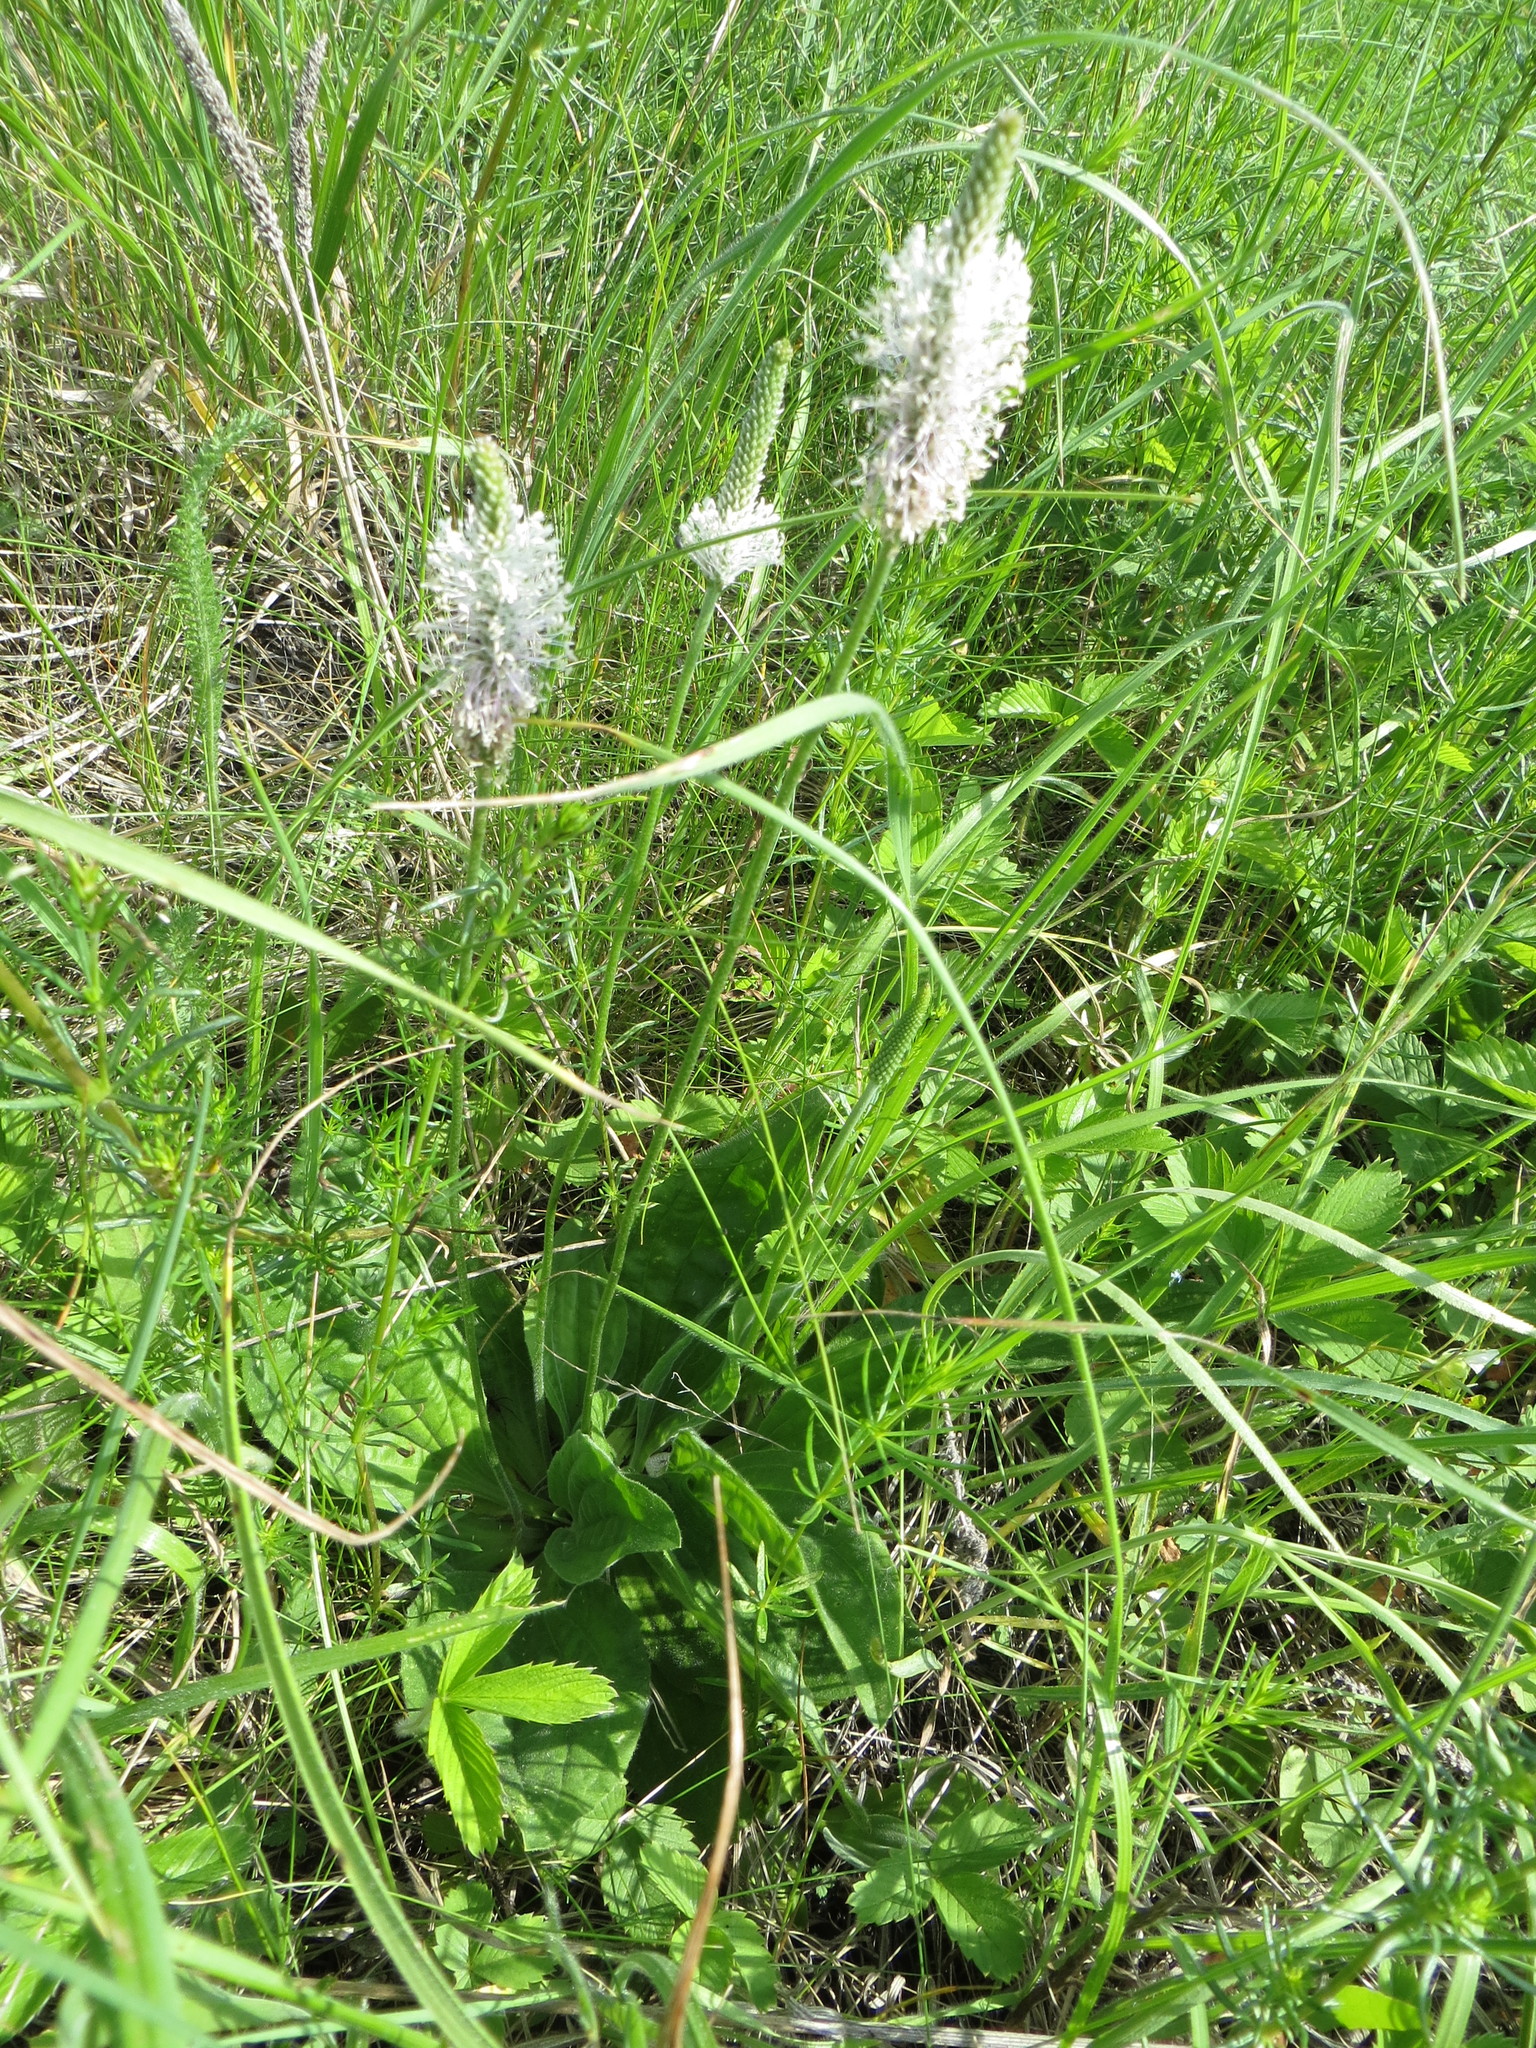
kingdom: Plantae
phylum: Tracheophyta
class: Magnoliopsida
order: Lamiales
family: Plantaginaceae
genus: Plantago
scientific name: Plantago media
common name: Hoary plantain
